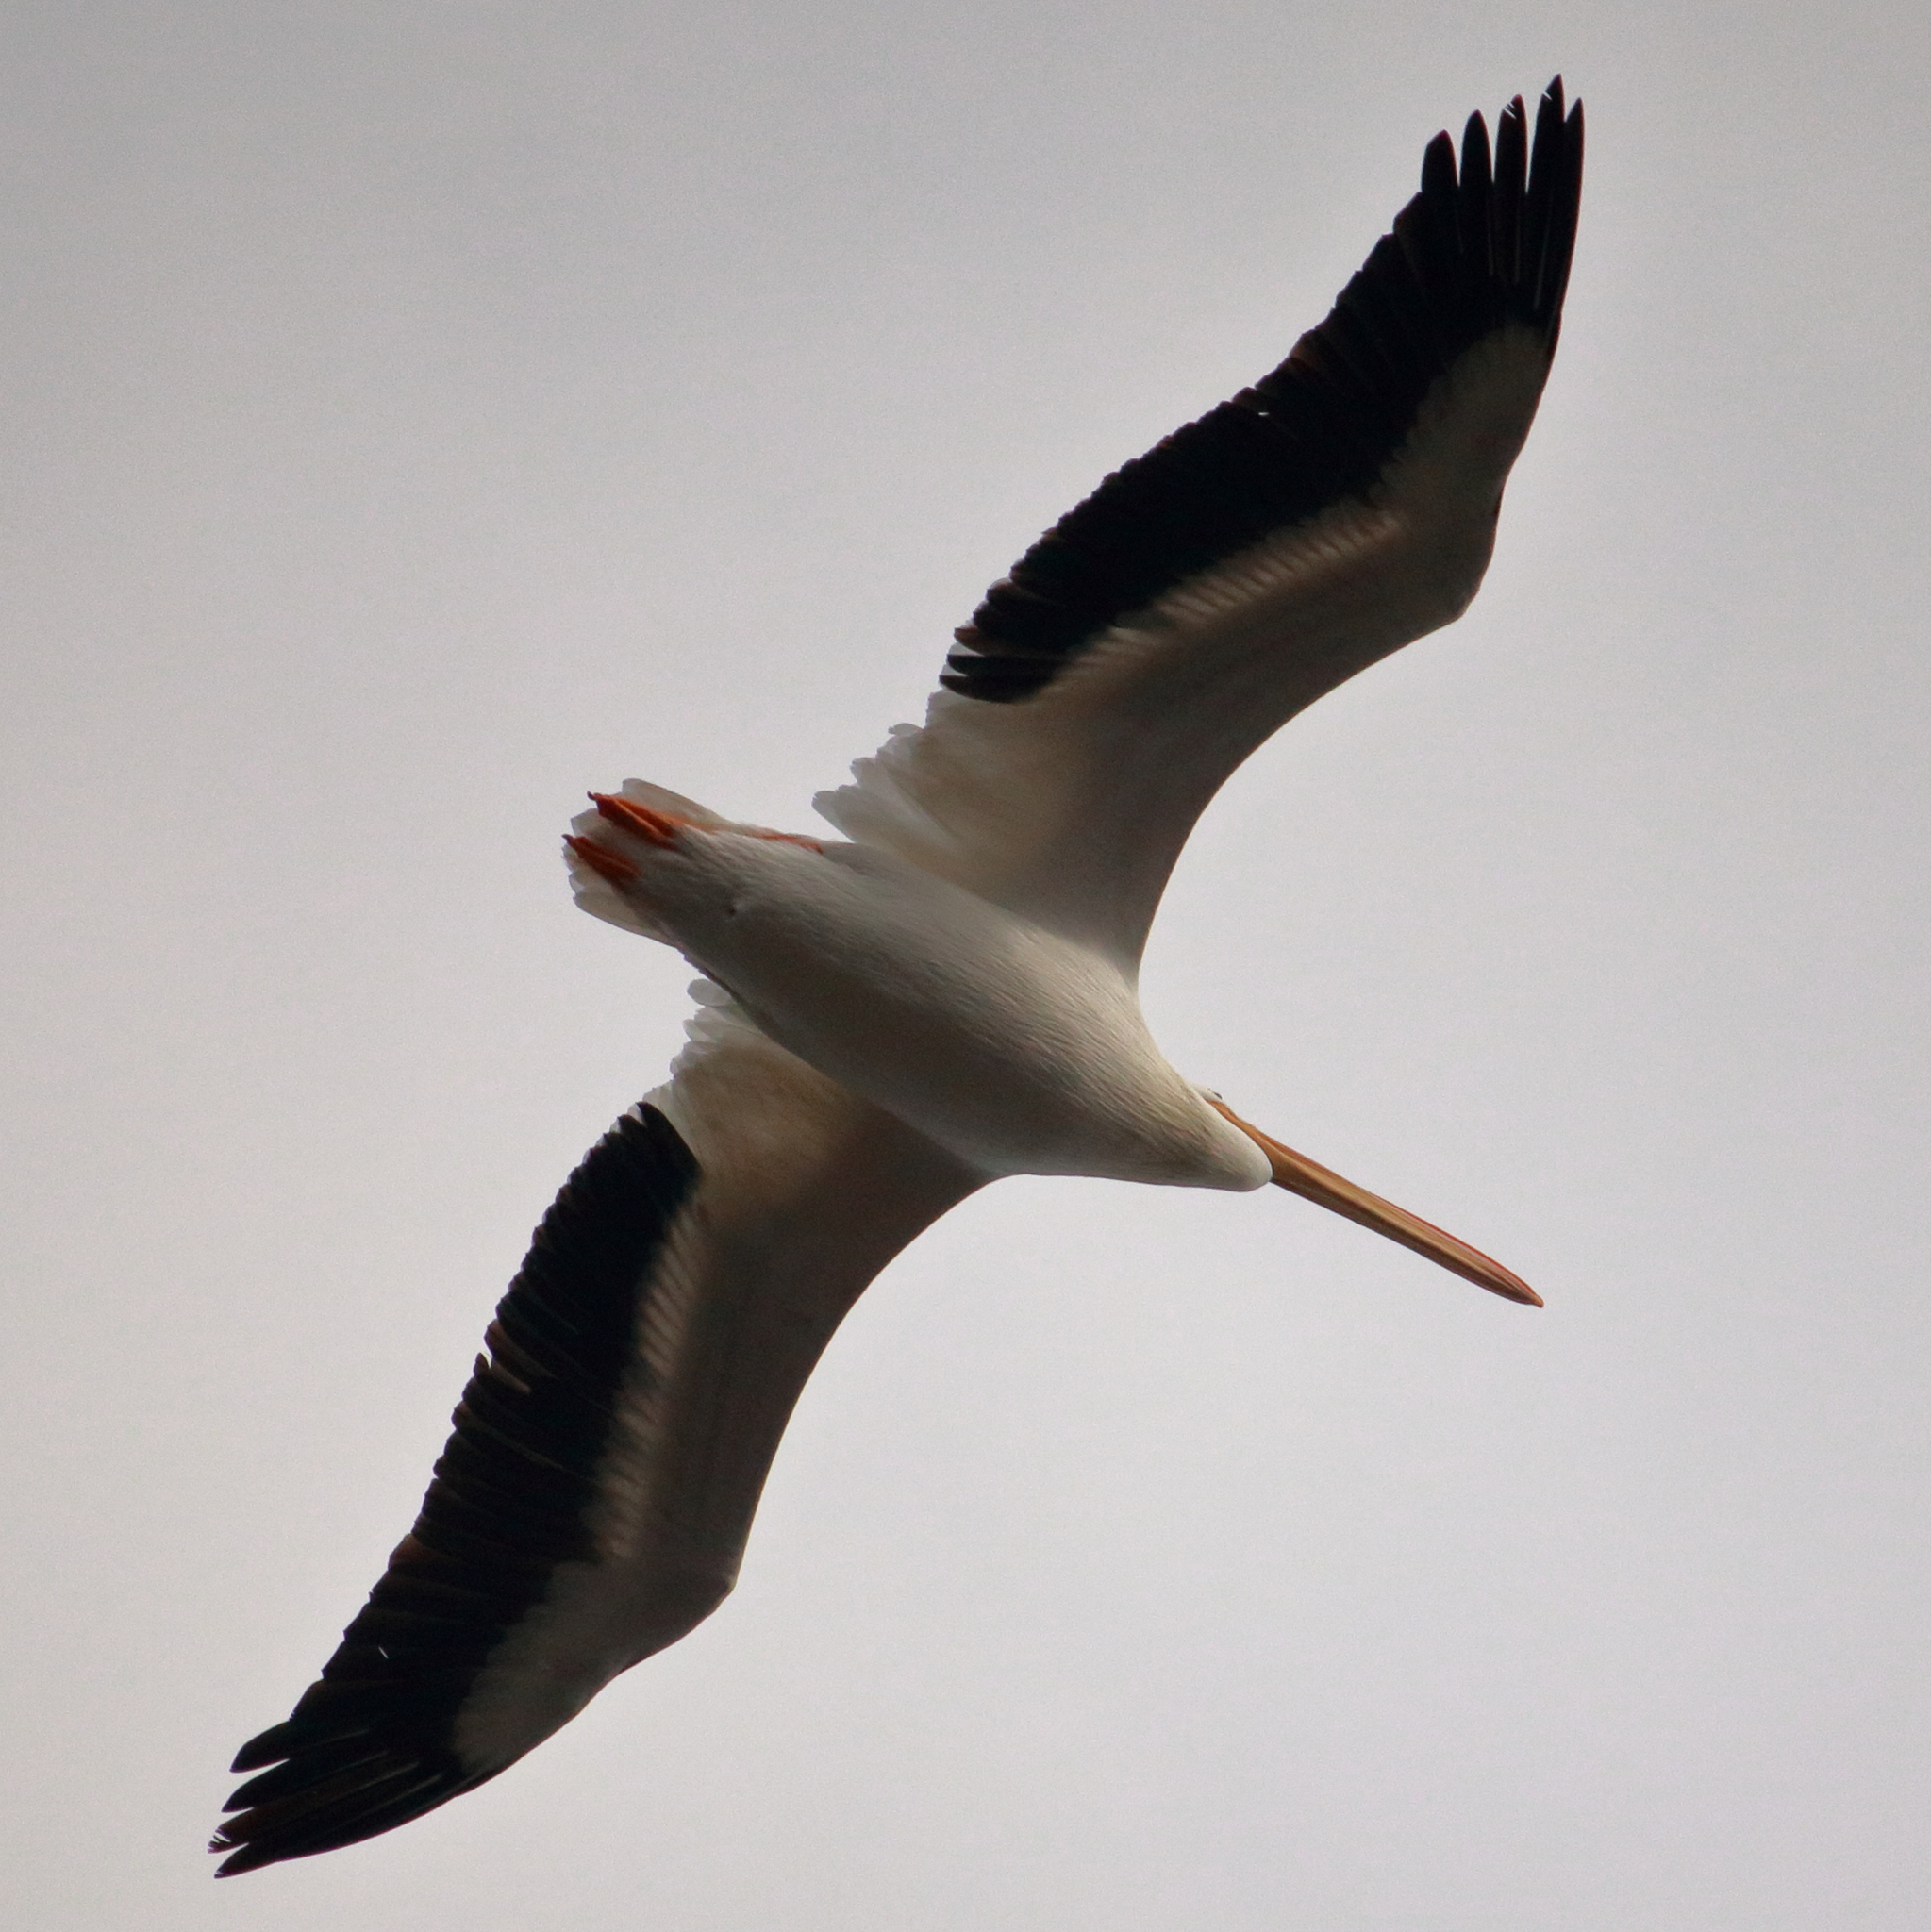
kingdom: Animalia
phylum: Chordata
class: Aves
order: Pelecaniformes
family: Pelecanidae
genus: Pelecanus
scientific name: Pelecanus erythrorhynchos
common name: American white pelican
